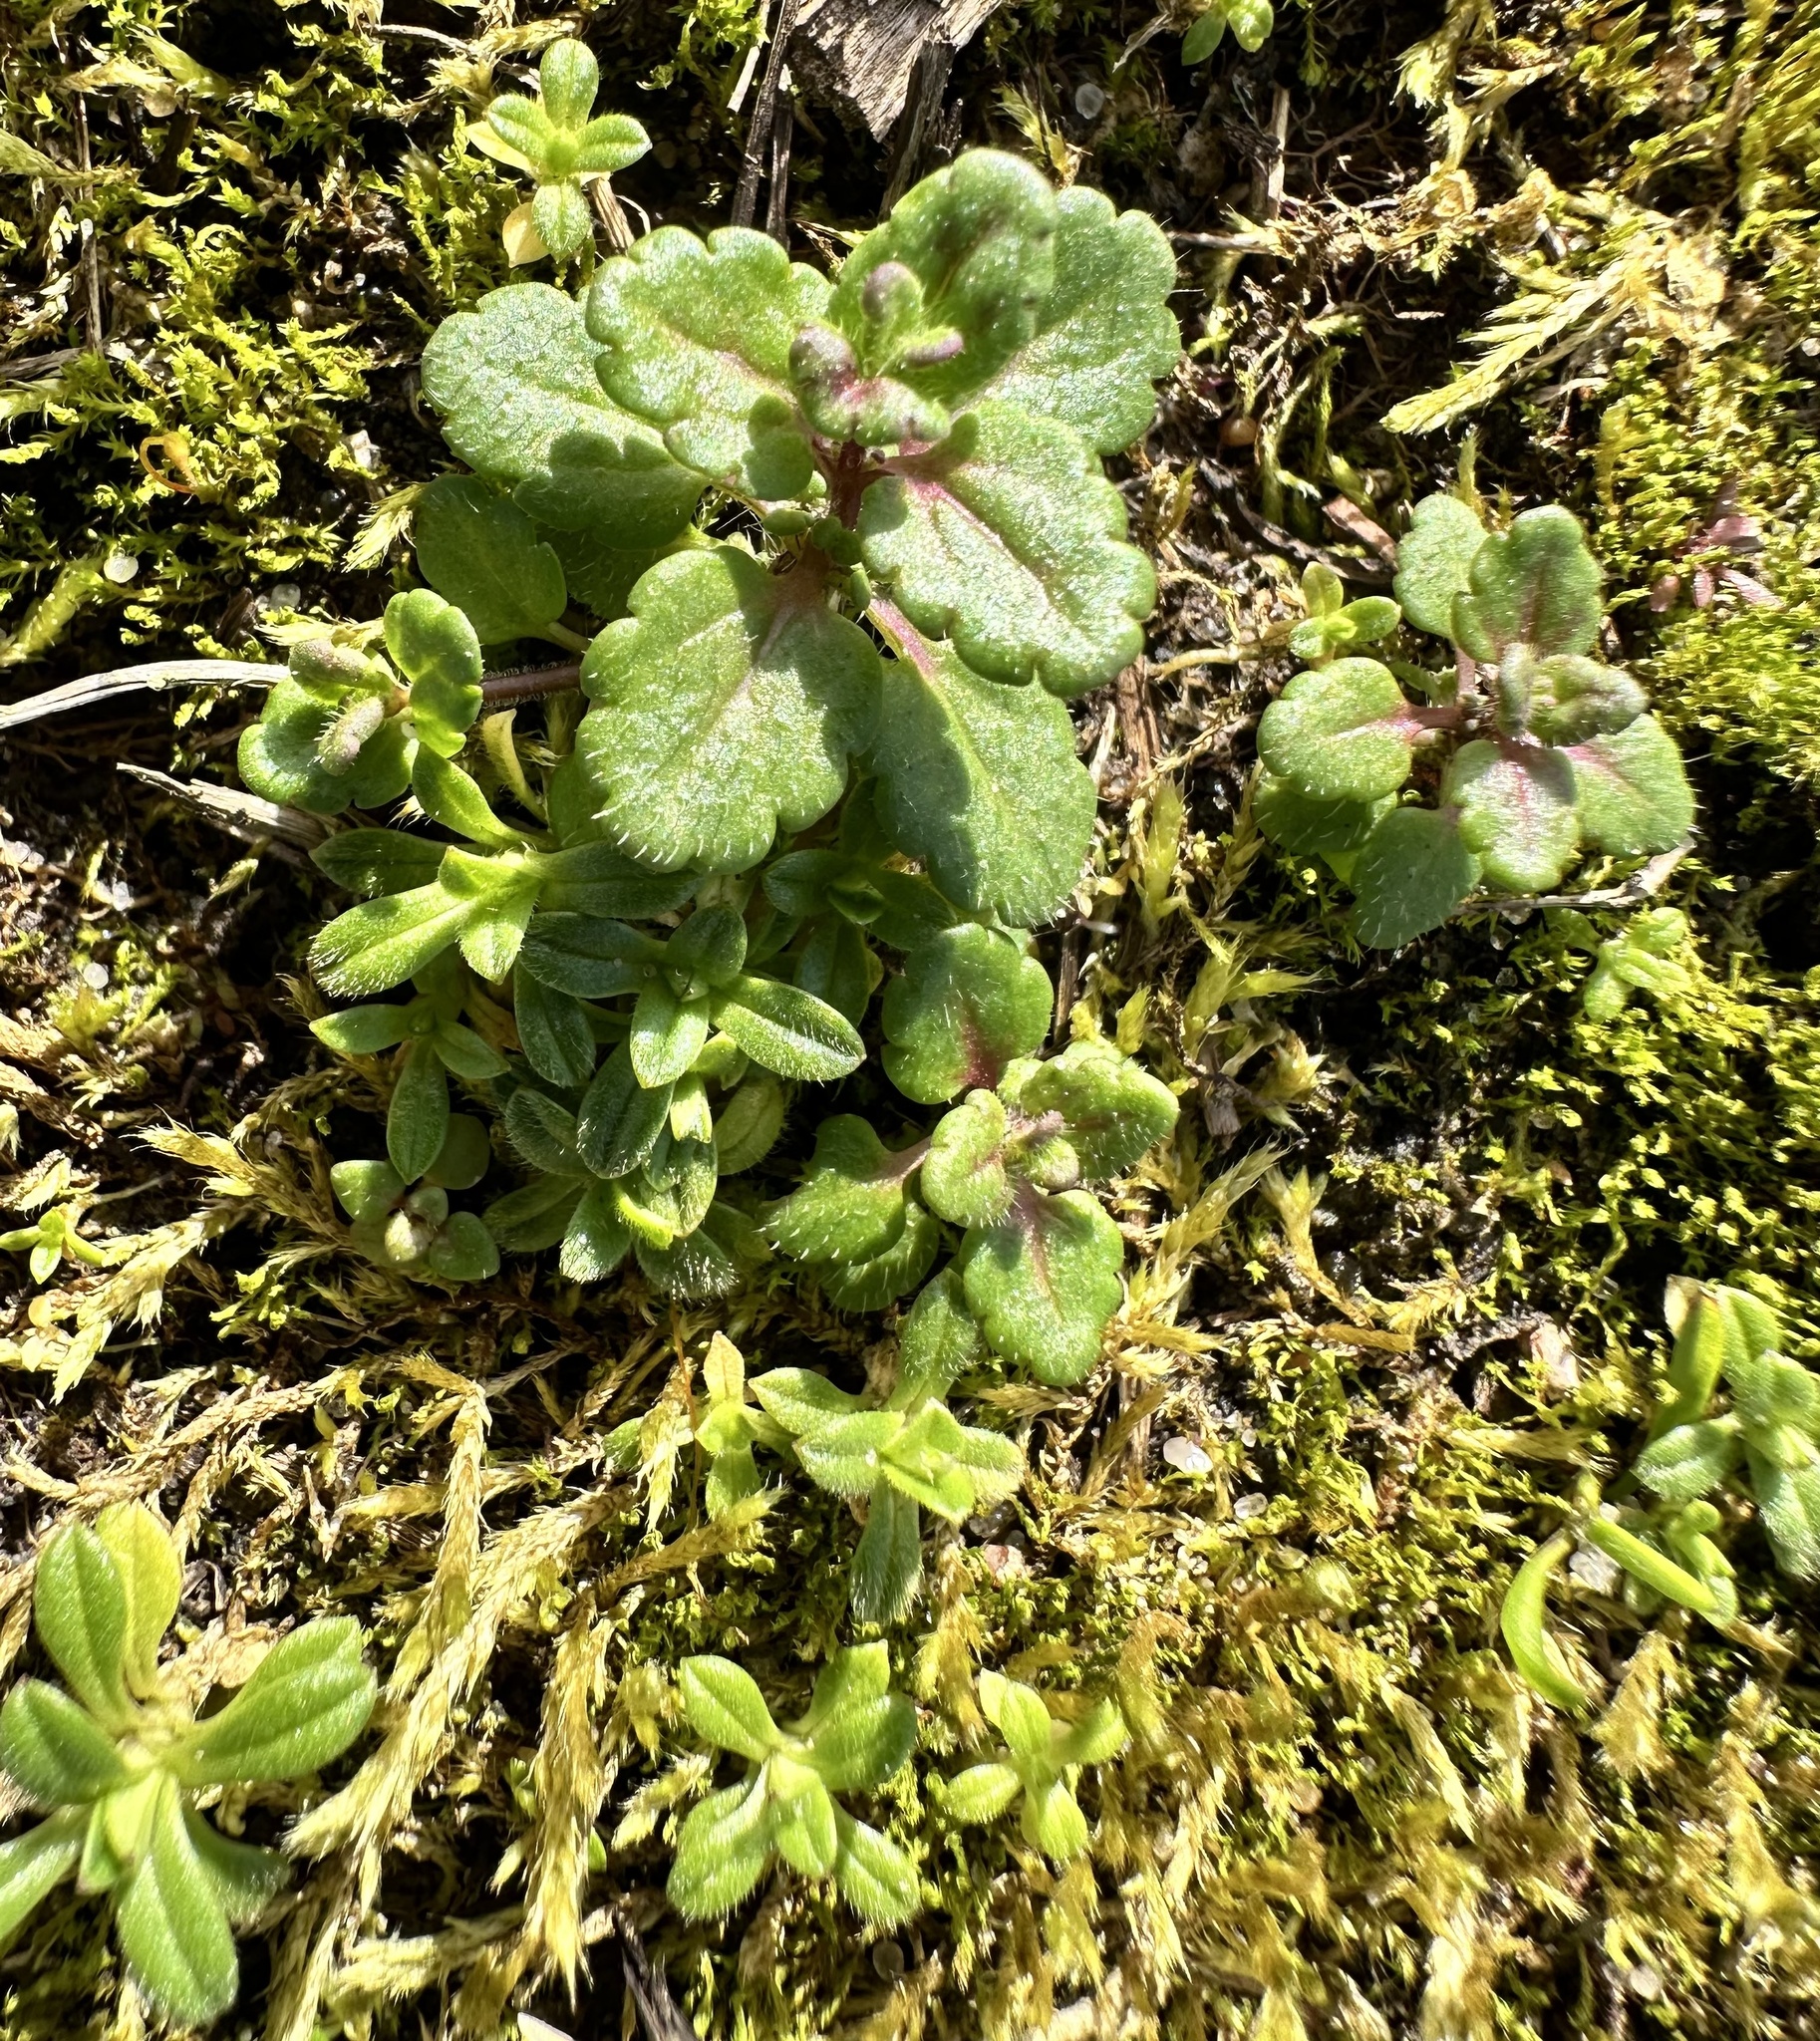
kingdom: Plantae
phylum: Tracheophyta
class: Magnoliopsida
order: Lamiales
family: Plantaginaceae
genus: Veronica
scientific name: Veronica arvensis
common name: Corn speedwell
